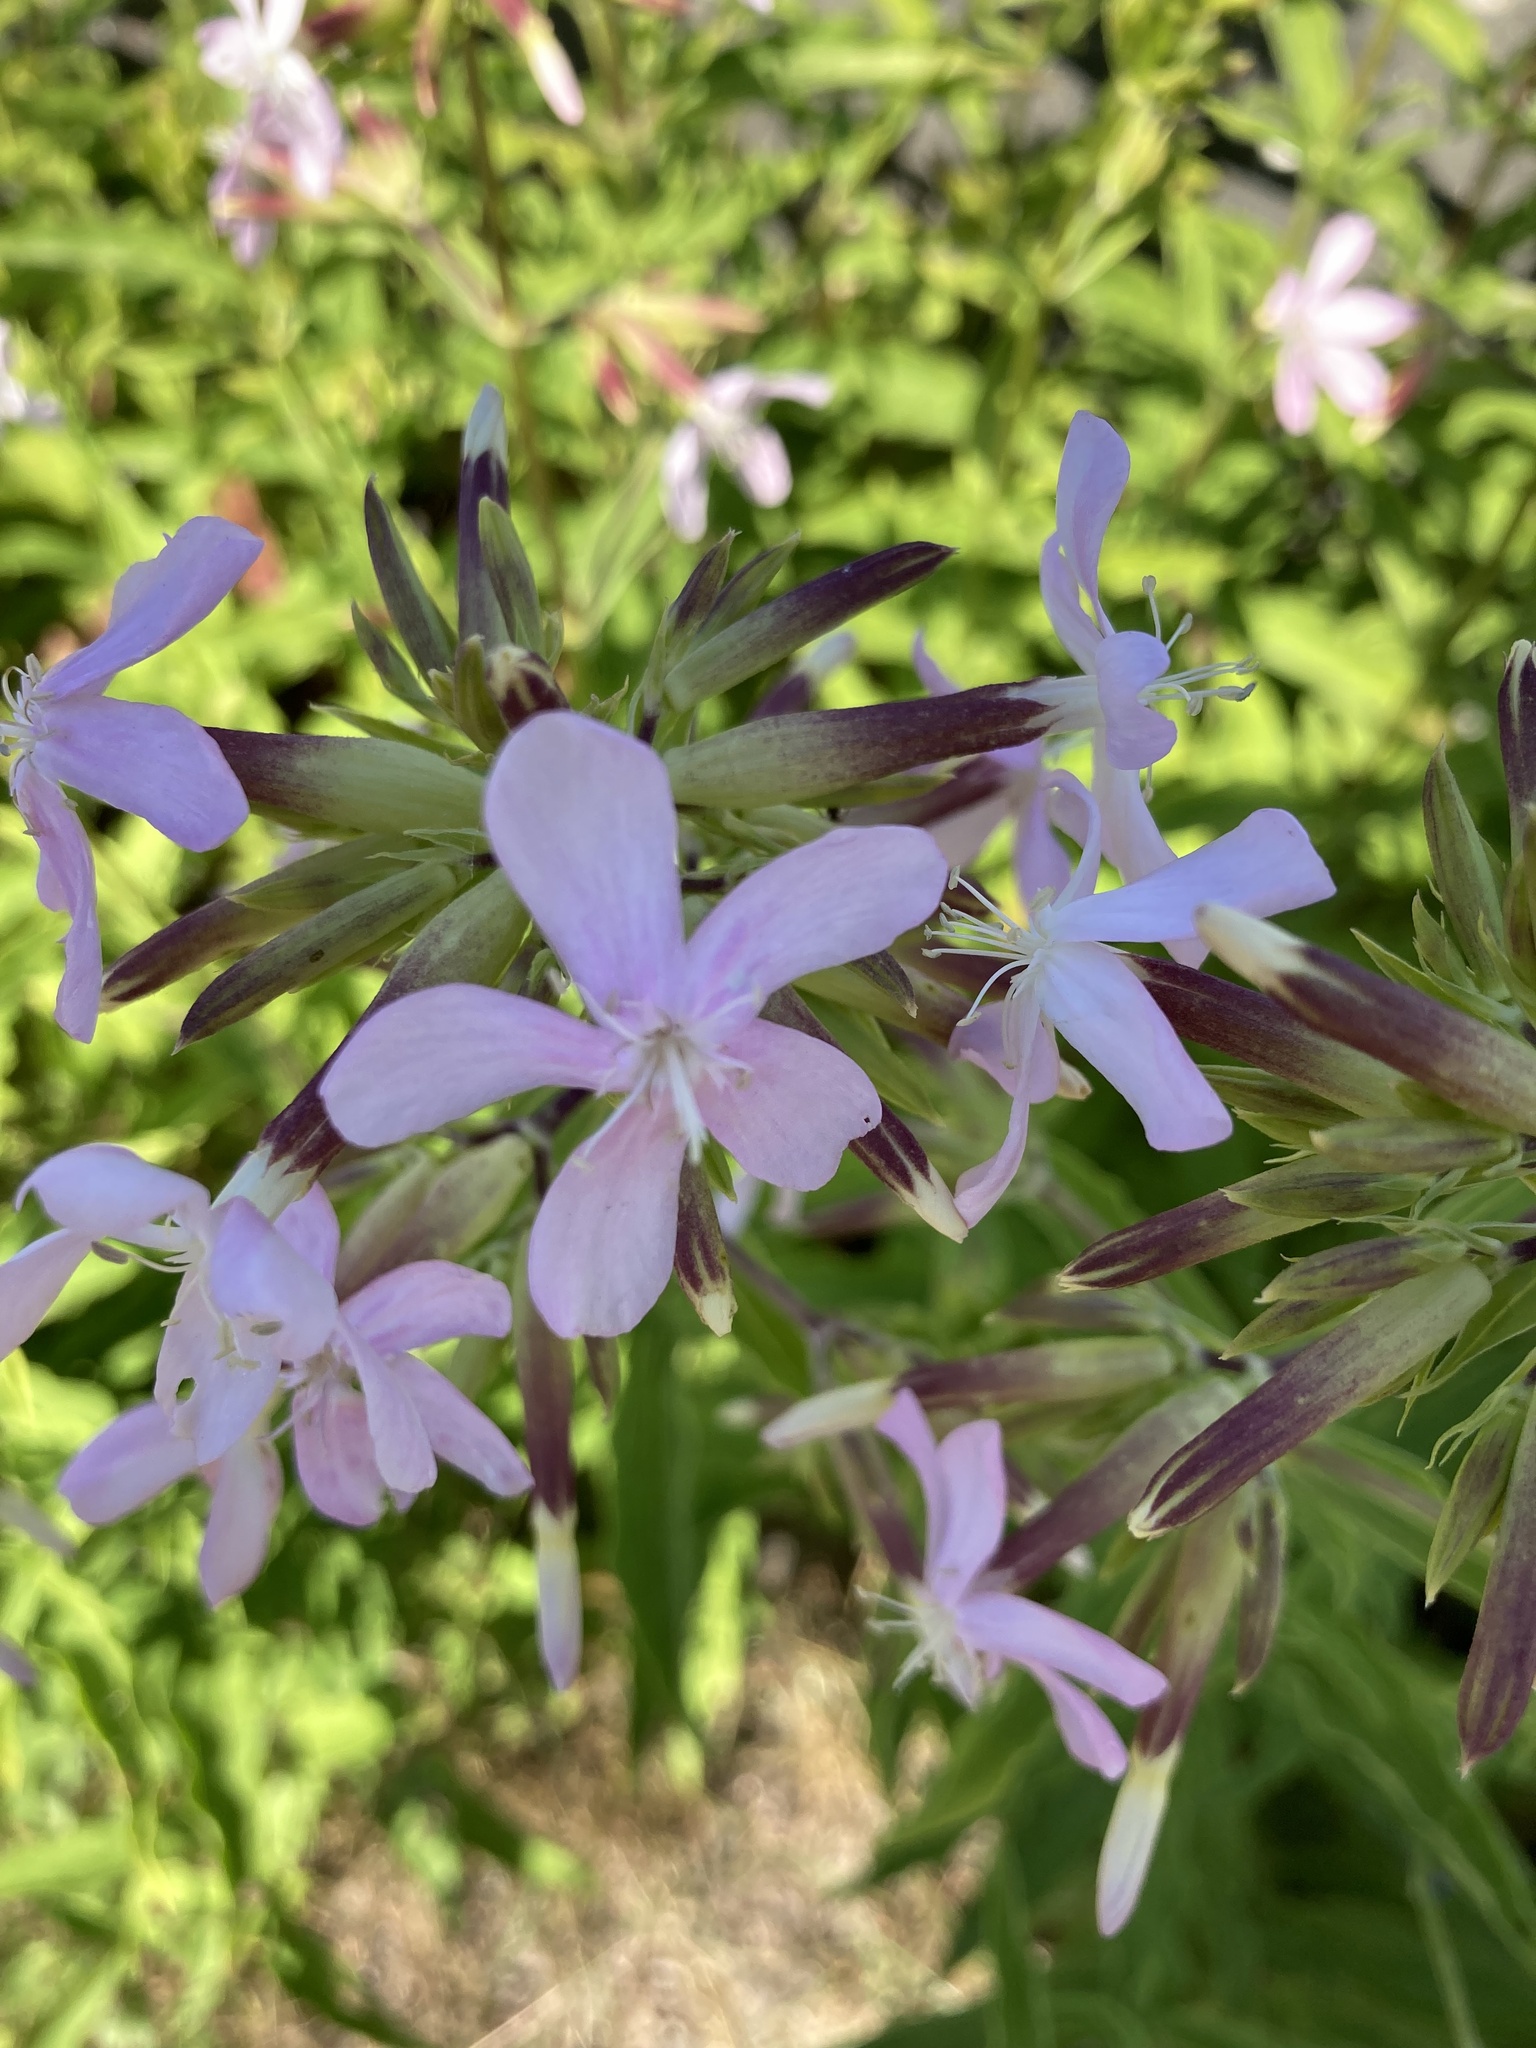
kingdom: Plantae
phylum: Tracheophyta
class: Magnoliopsida
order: Caryophyllales
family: Caryophyllaceae
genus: Saponaria
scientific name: Saponaria officinalis
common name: Soapwort
